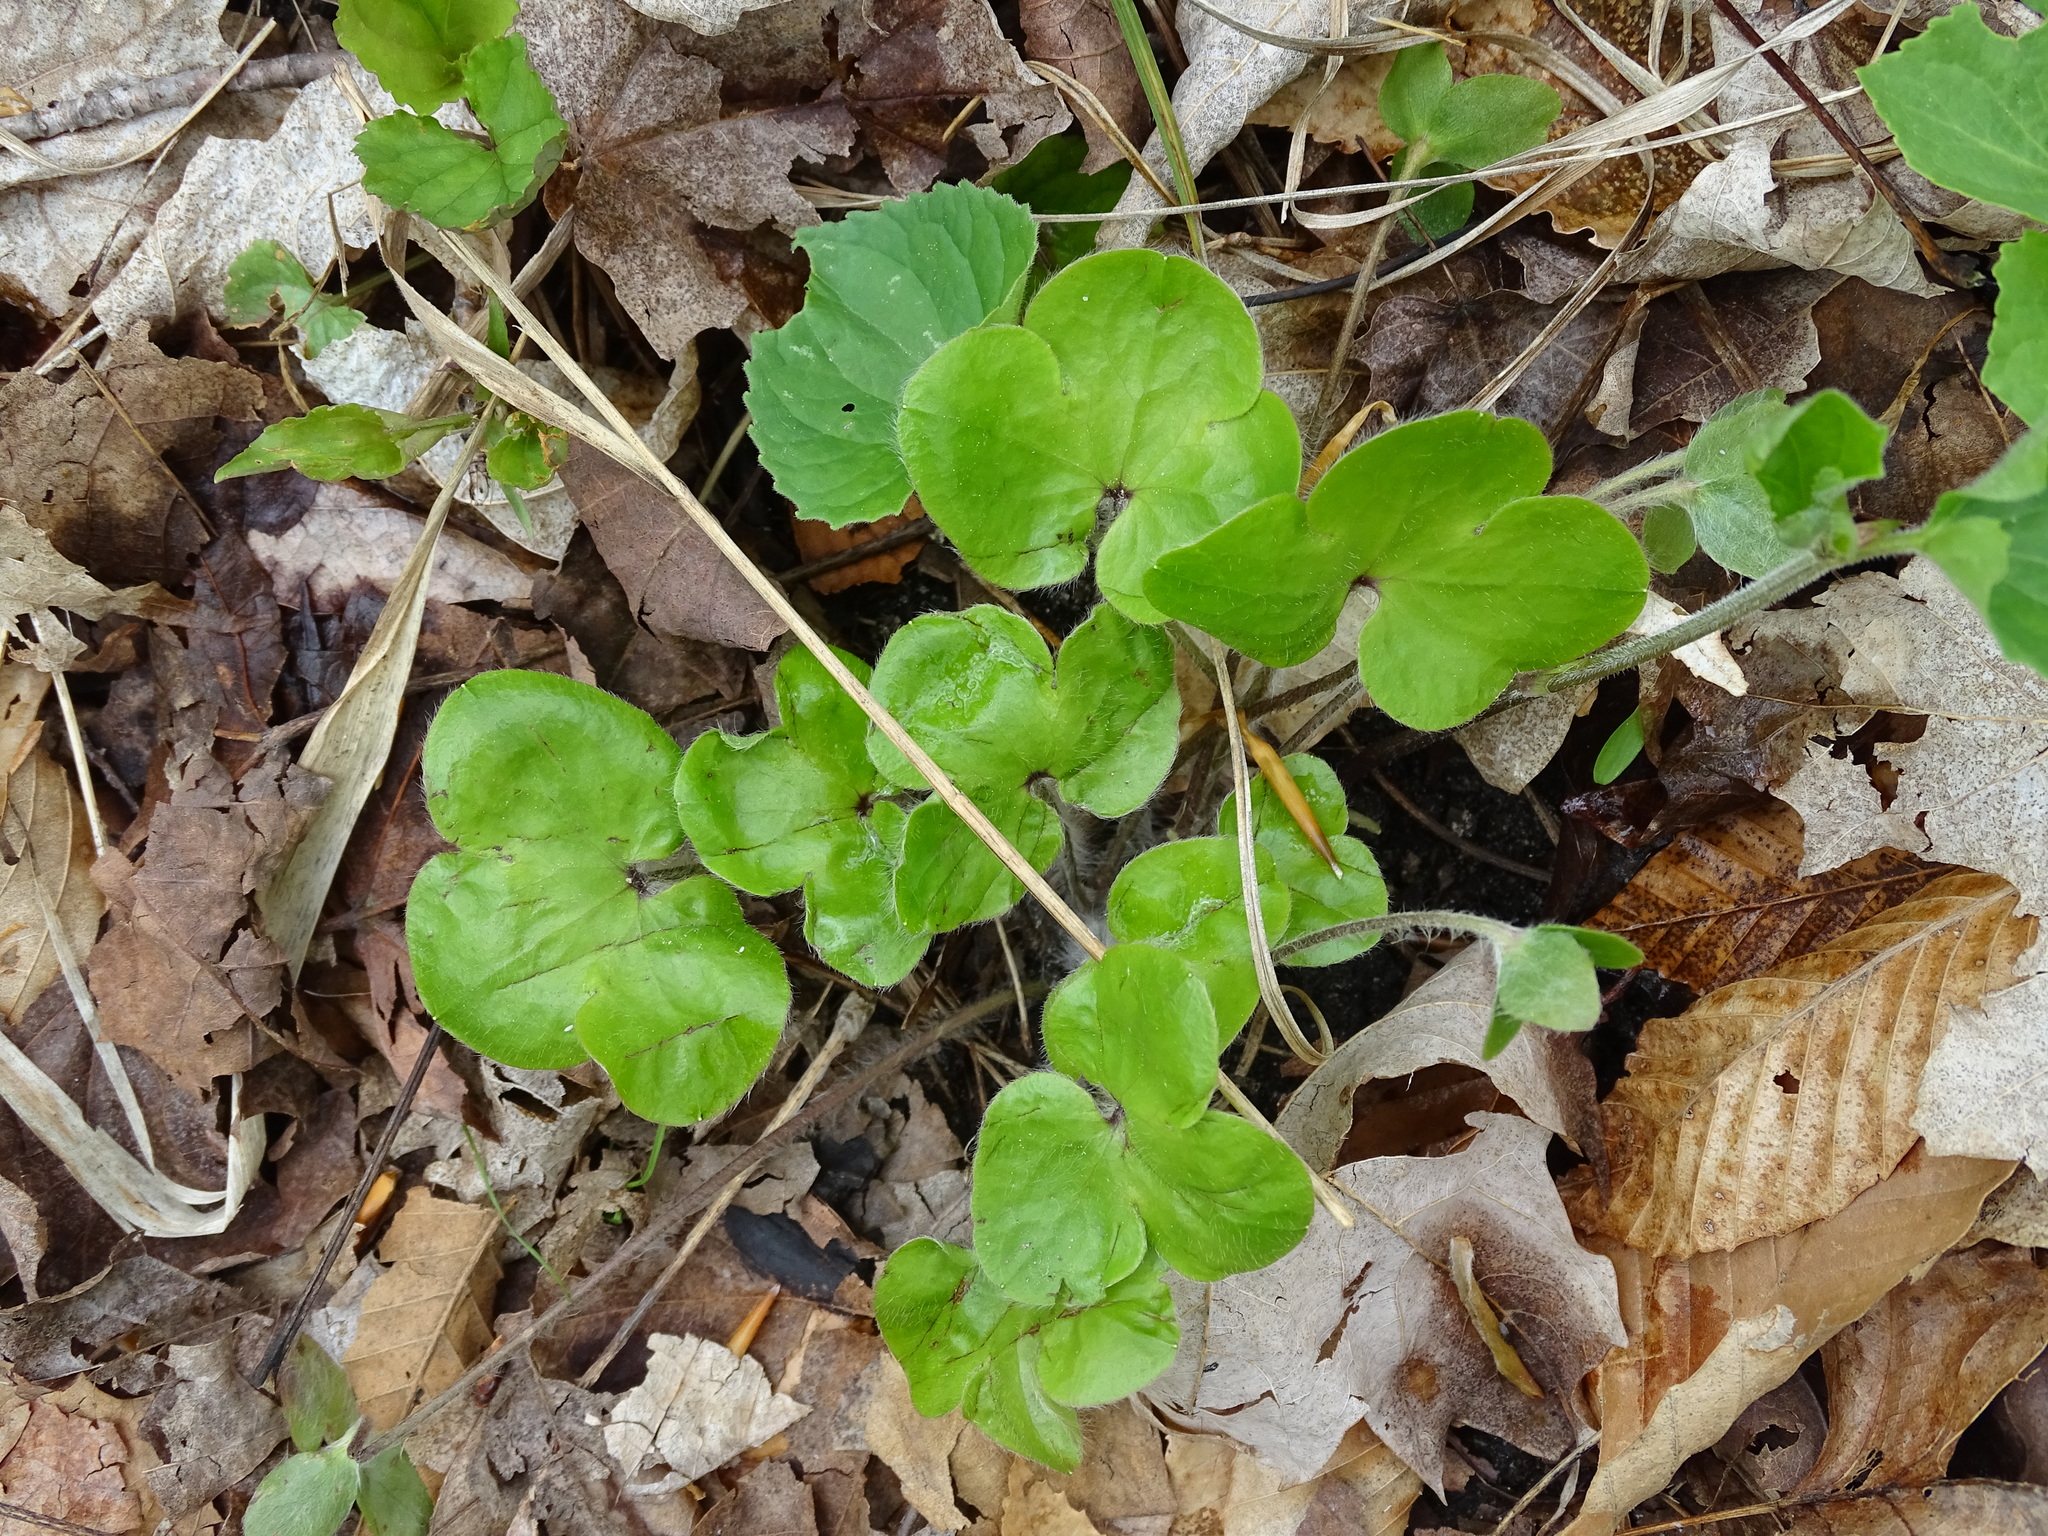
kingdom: Plantae
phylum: Tracheophyta
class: Magnoliopsida
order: Ranunculales
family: Ranunculaceae
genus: Hepatica
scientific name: Hepatica americana
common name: American hepatica
